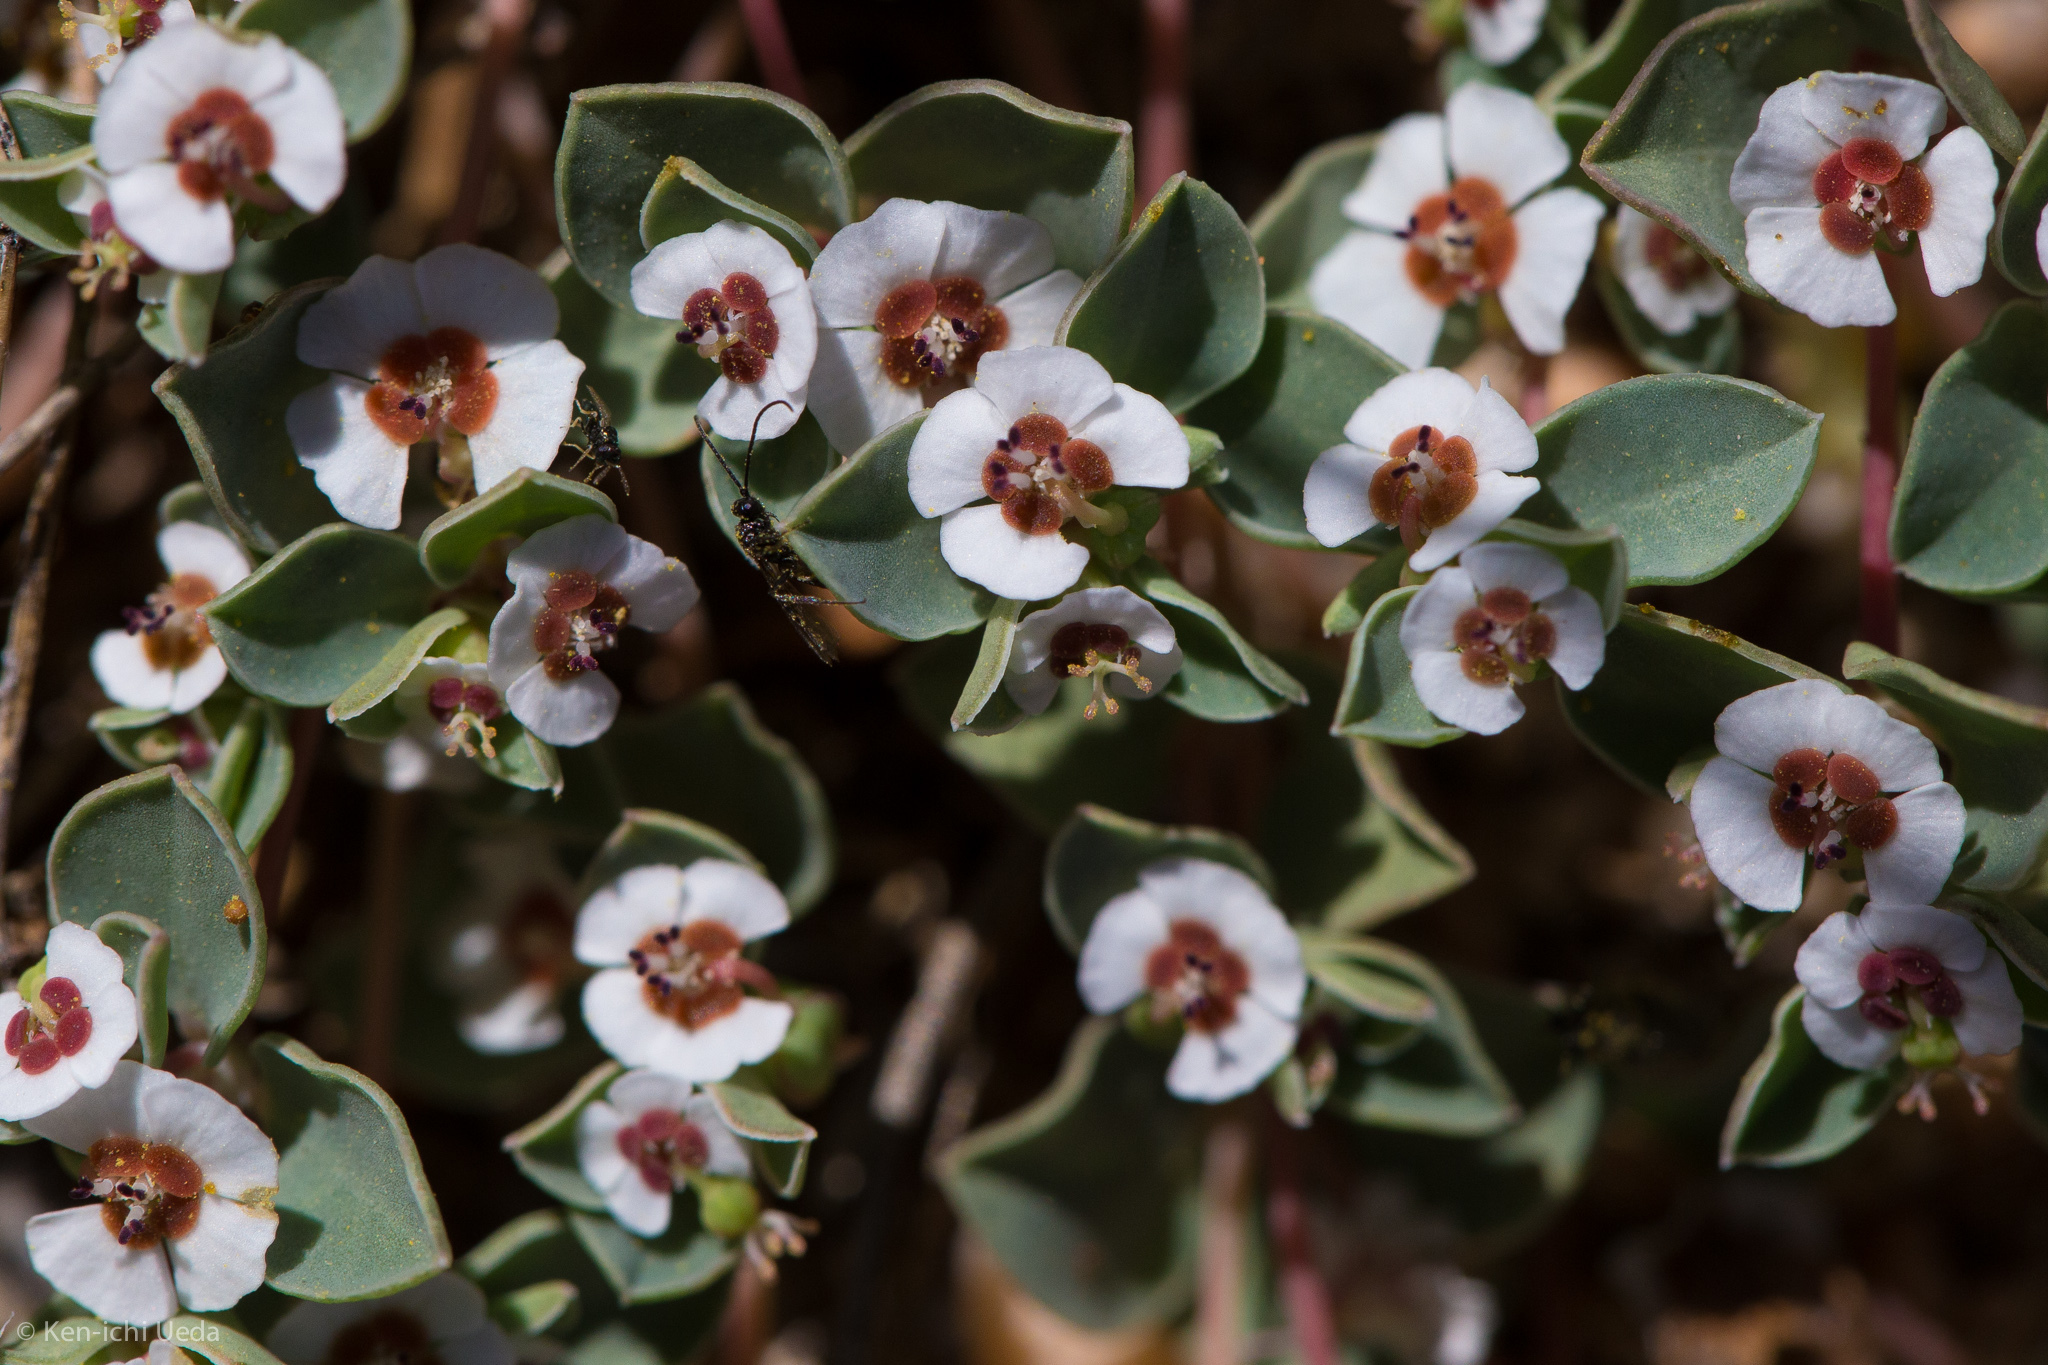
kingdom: Plantae
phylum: Tracheophyta
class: Magnoliopsida
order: Malpighiales
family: Euphorbiaceae
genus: Euphorbia
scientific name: Euphorbia albomarginata
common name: Whitemargin sandmat
